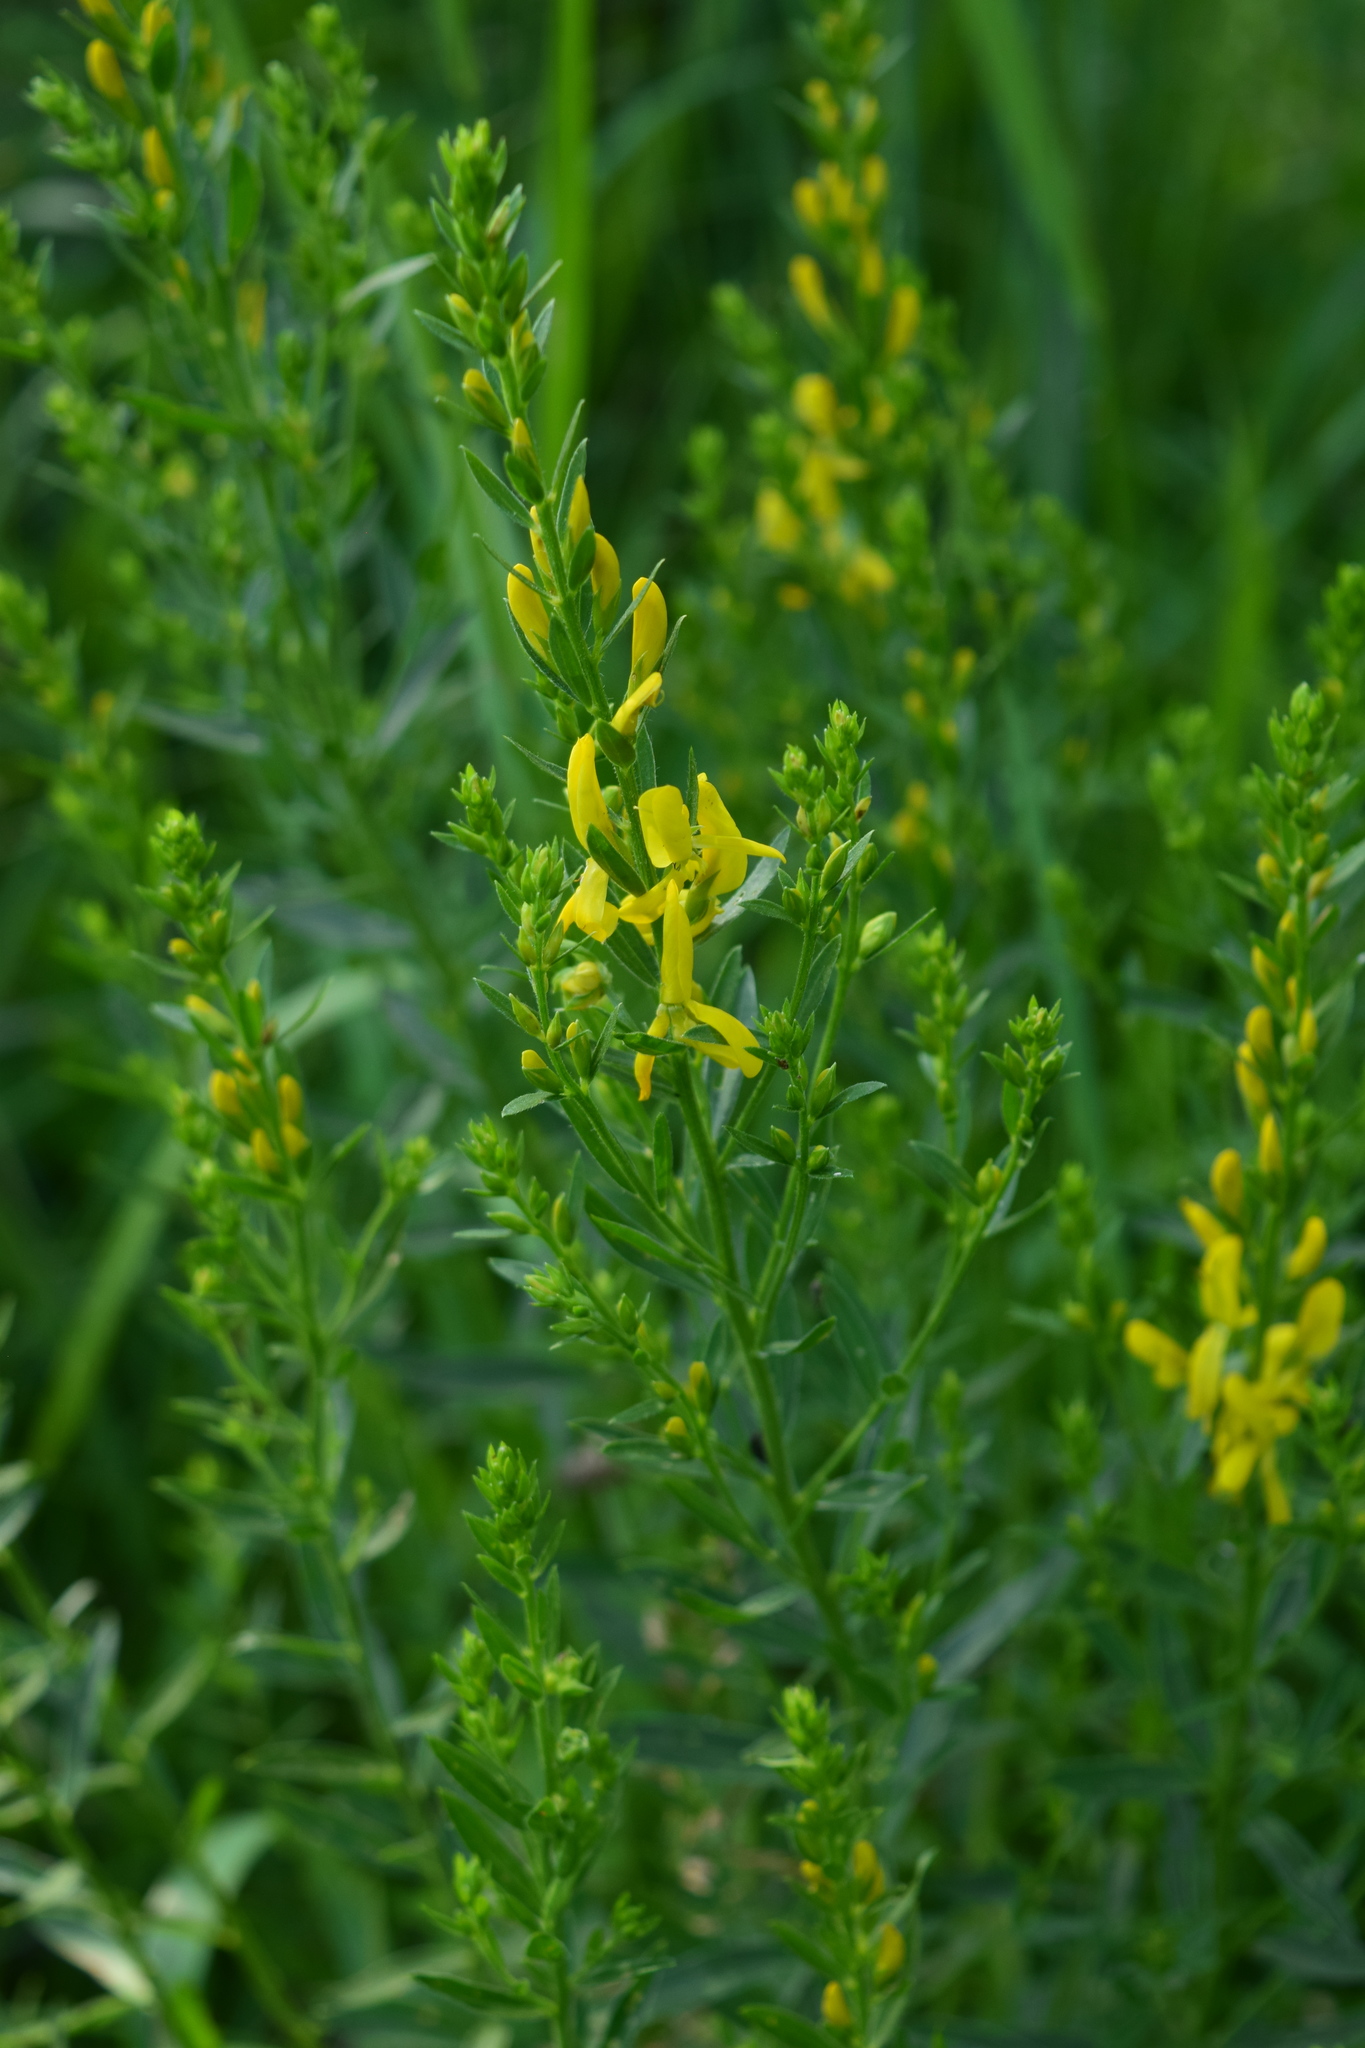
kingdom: Plantae
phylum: Tracheophyta
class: Magnoliopsida
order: Fabales
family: Fabaceae
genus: Genista
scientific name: Genista tinctoria
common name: Dyer's greenweed
